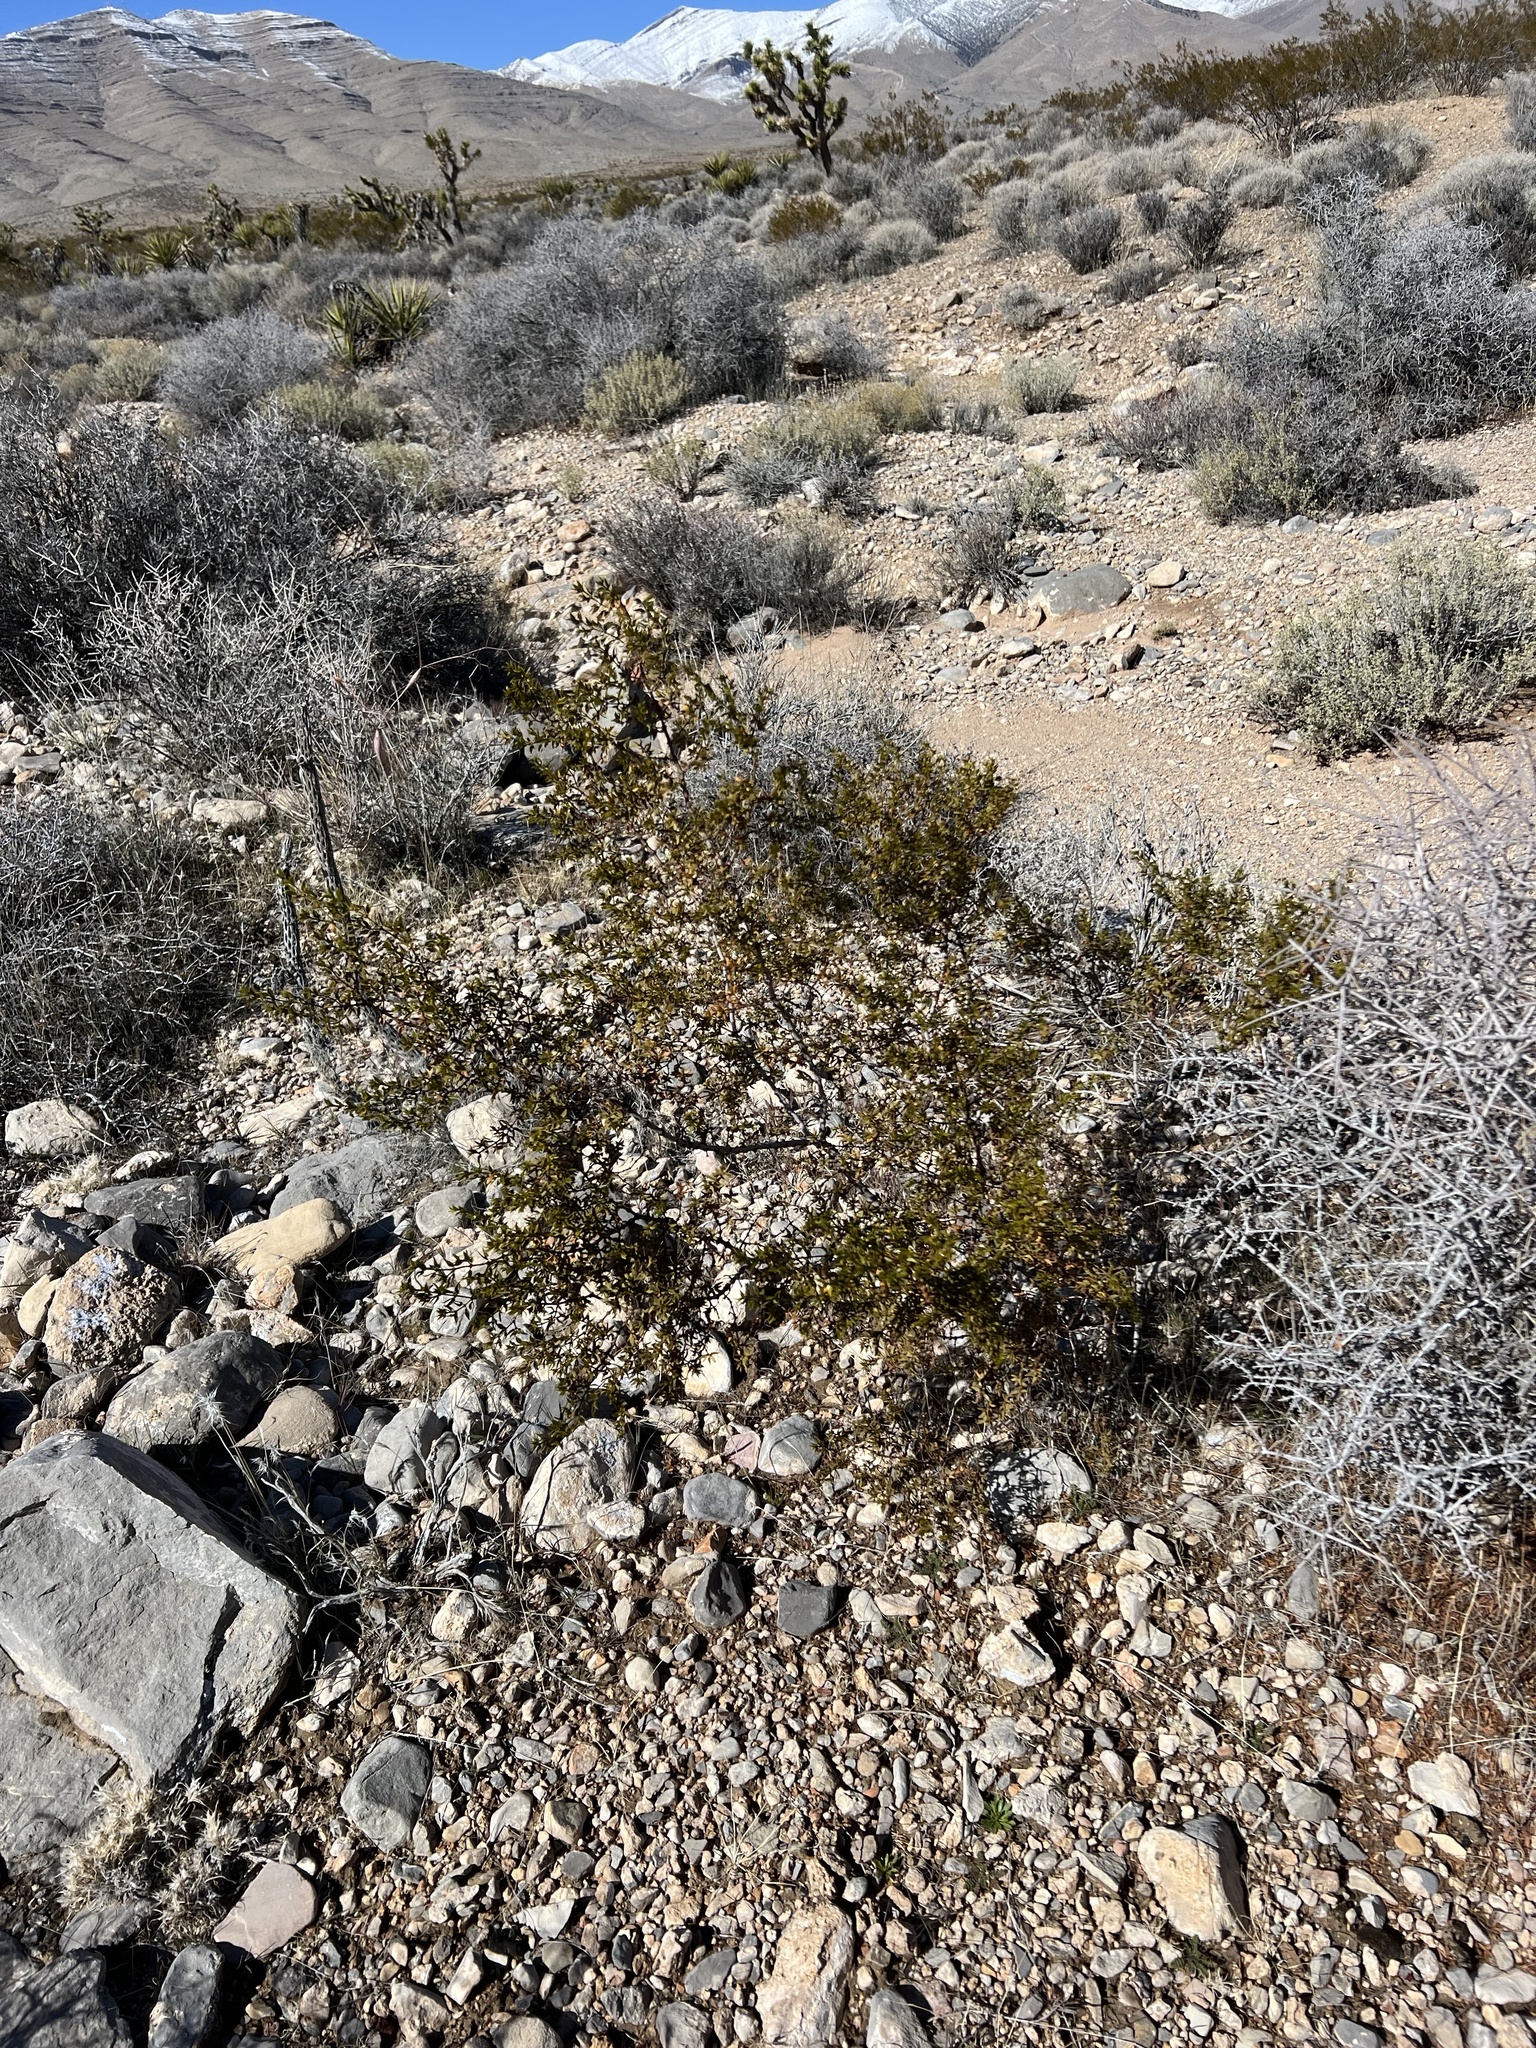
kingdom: Plantae
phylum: Tracheophyta
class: Magnoliopsida
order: Zygophyllales
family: Zygophyllaceae
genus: Larrea
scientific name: Larrea tridentata
